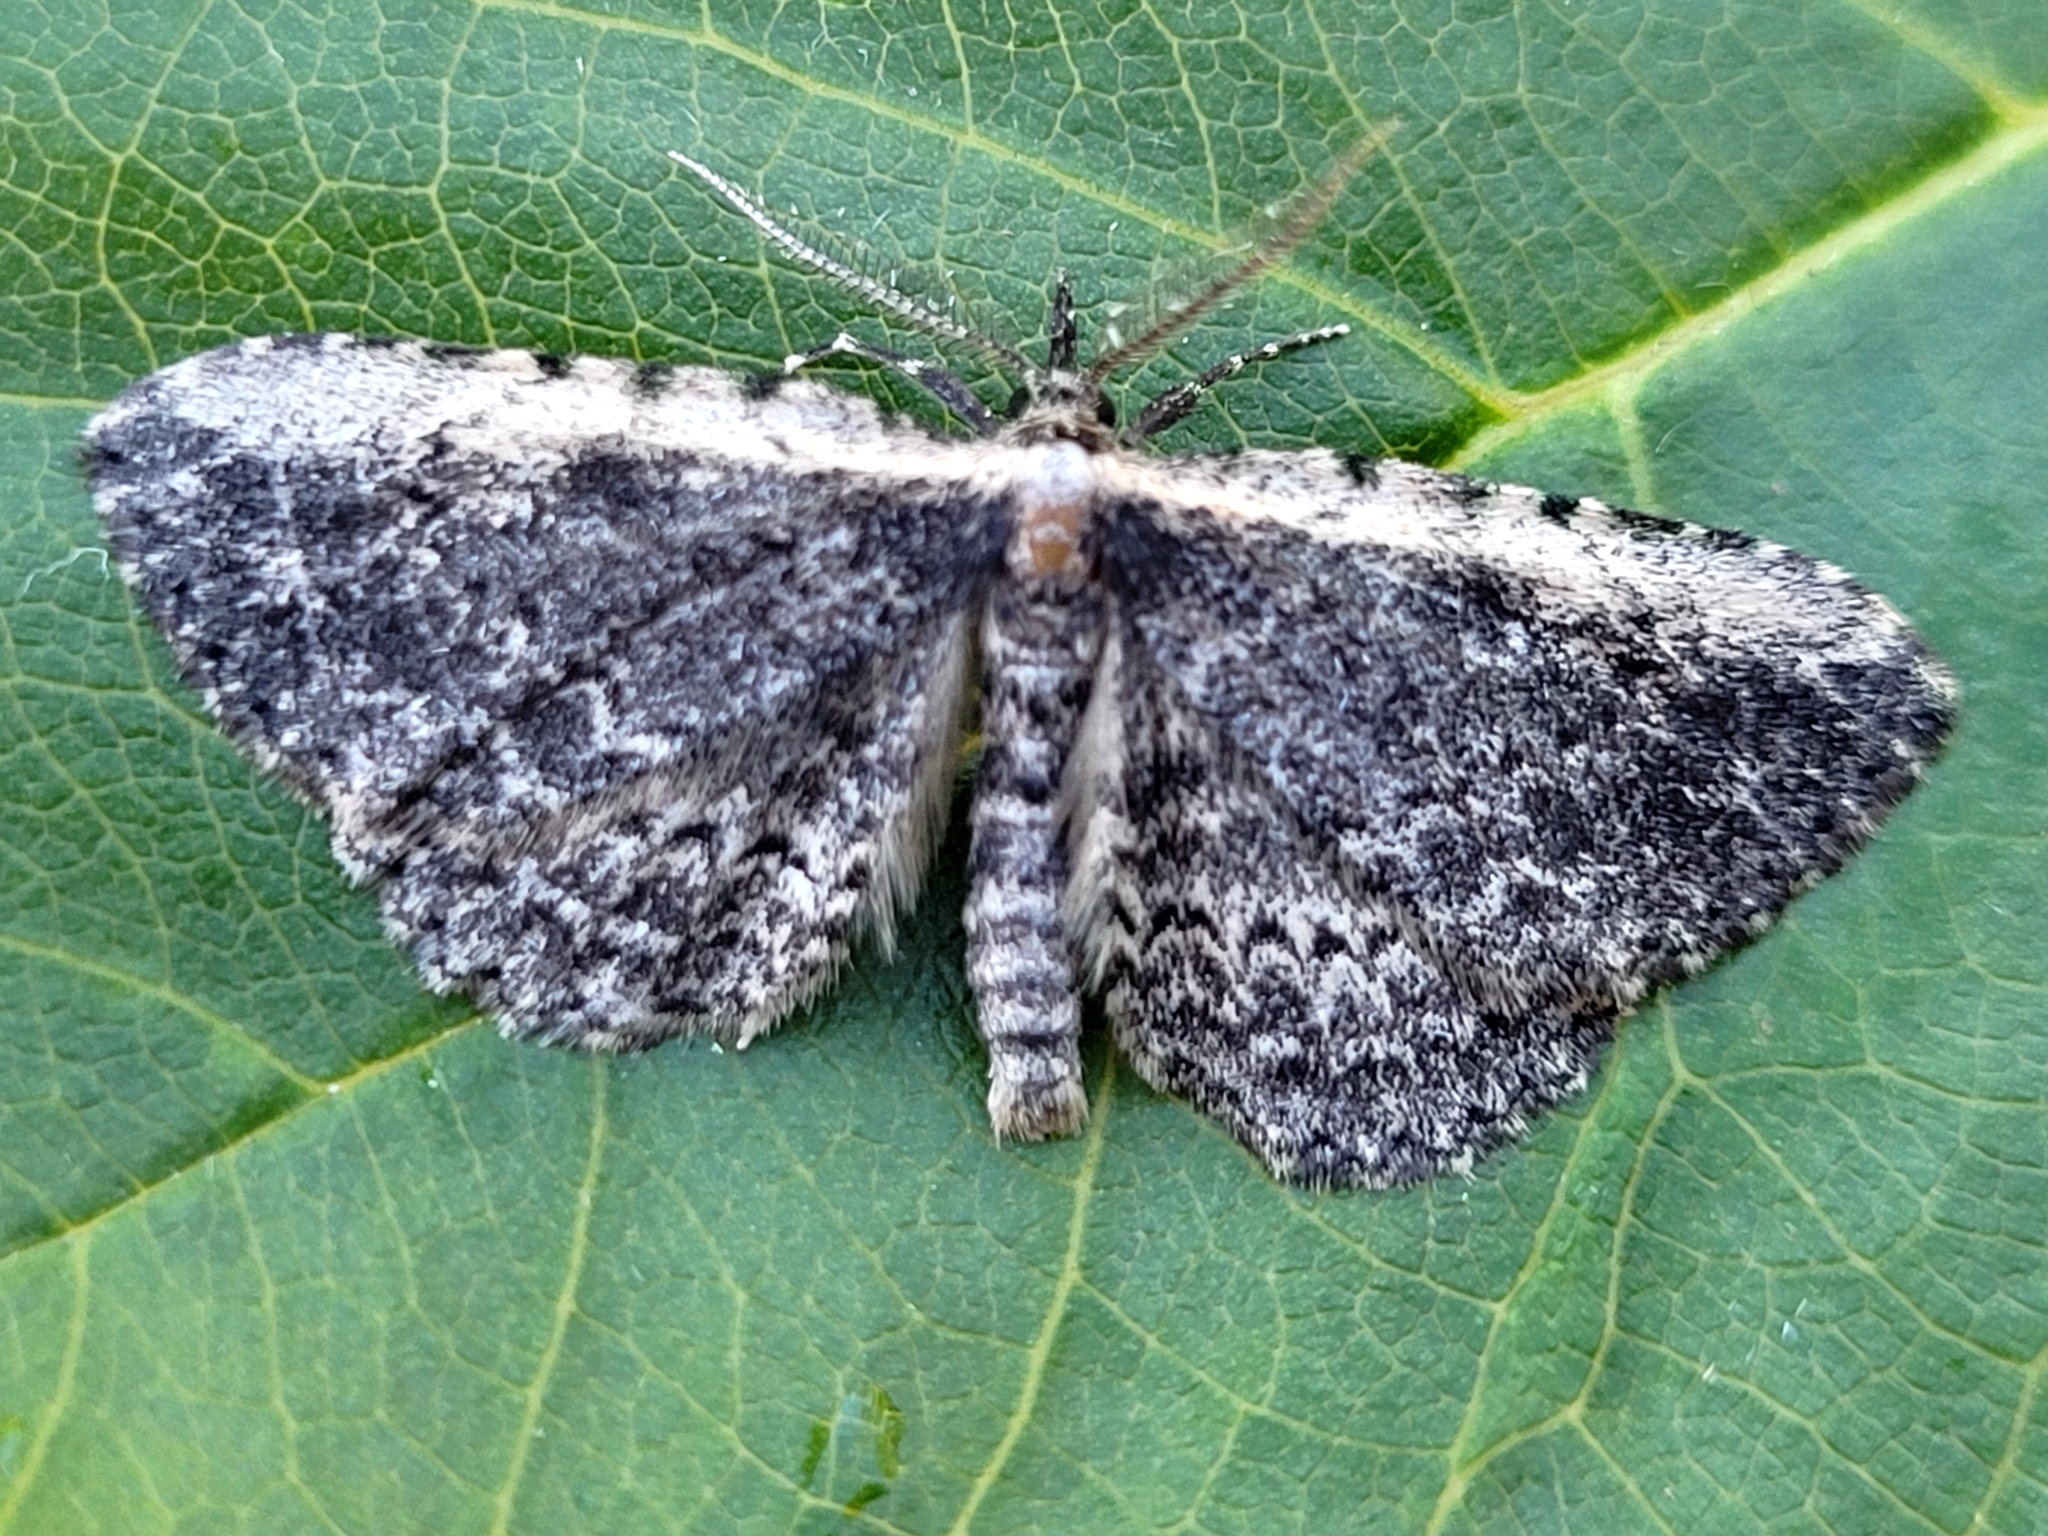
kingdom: Animalia
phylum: Arthropoda
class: Insecta
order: Lepidoptera
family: Erebidae
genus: Mycterophora
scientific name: Mycterophora inexplicata
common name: Pale-edged snout moth
